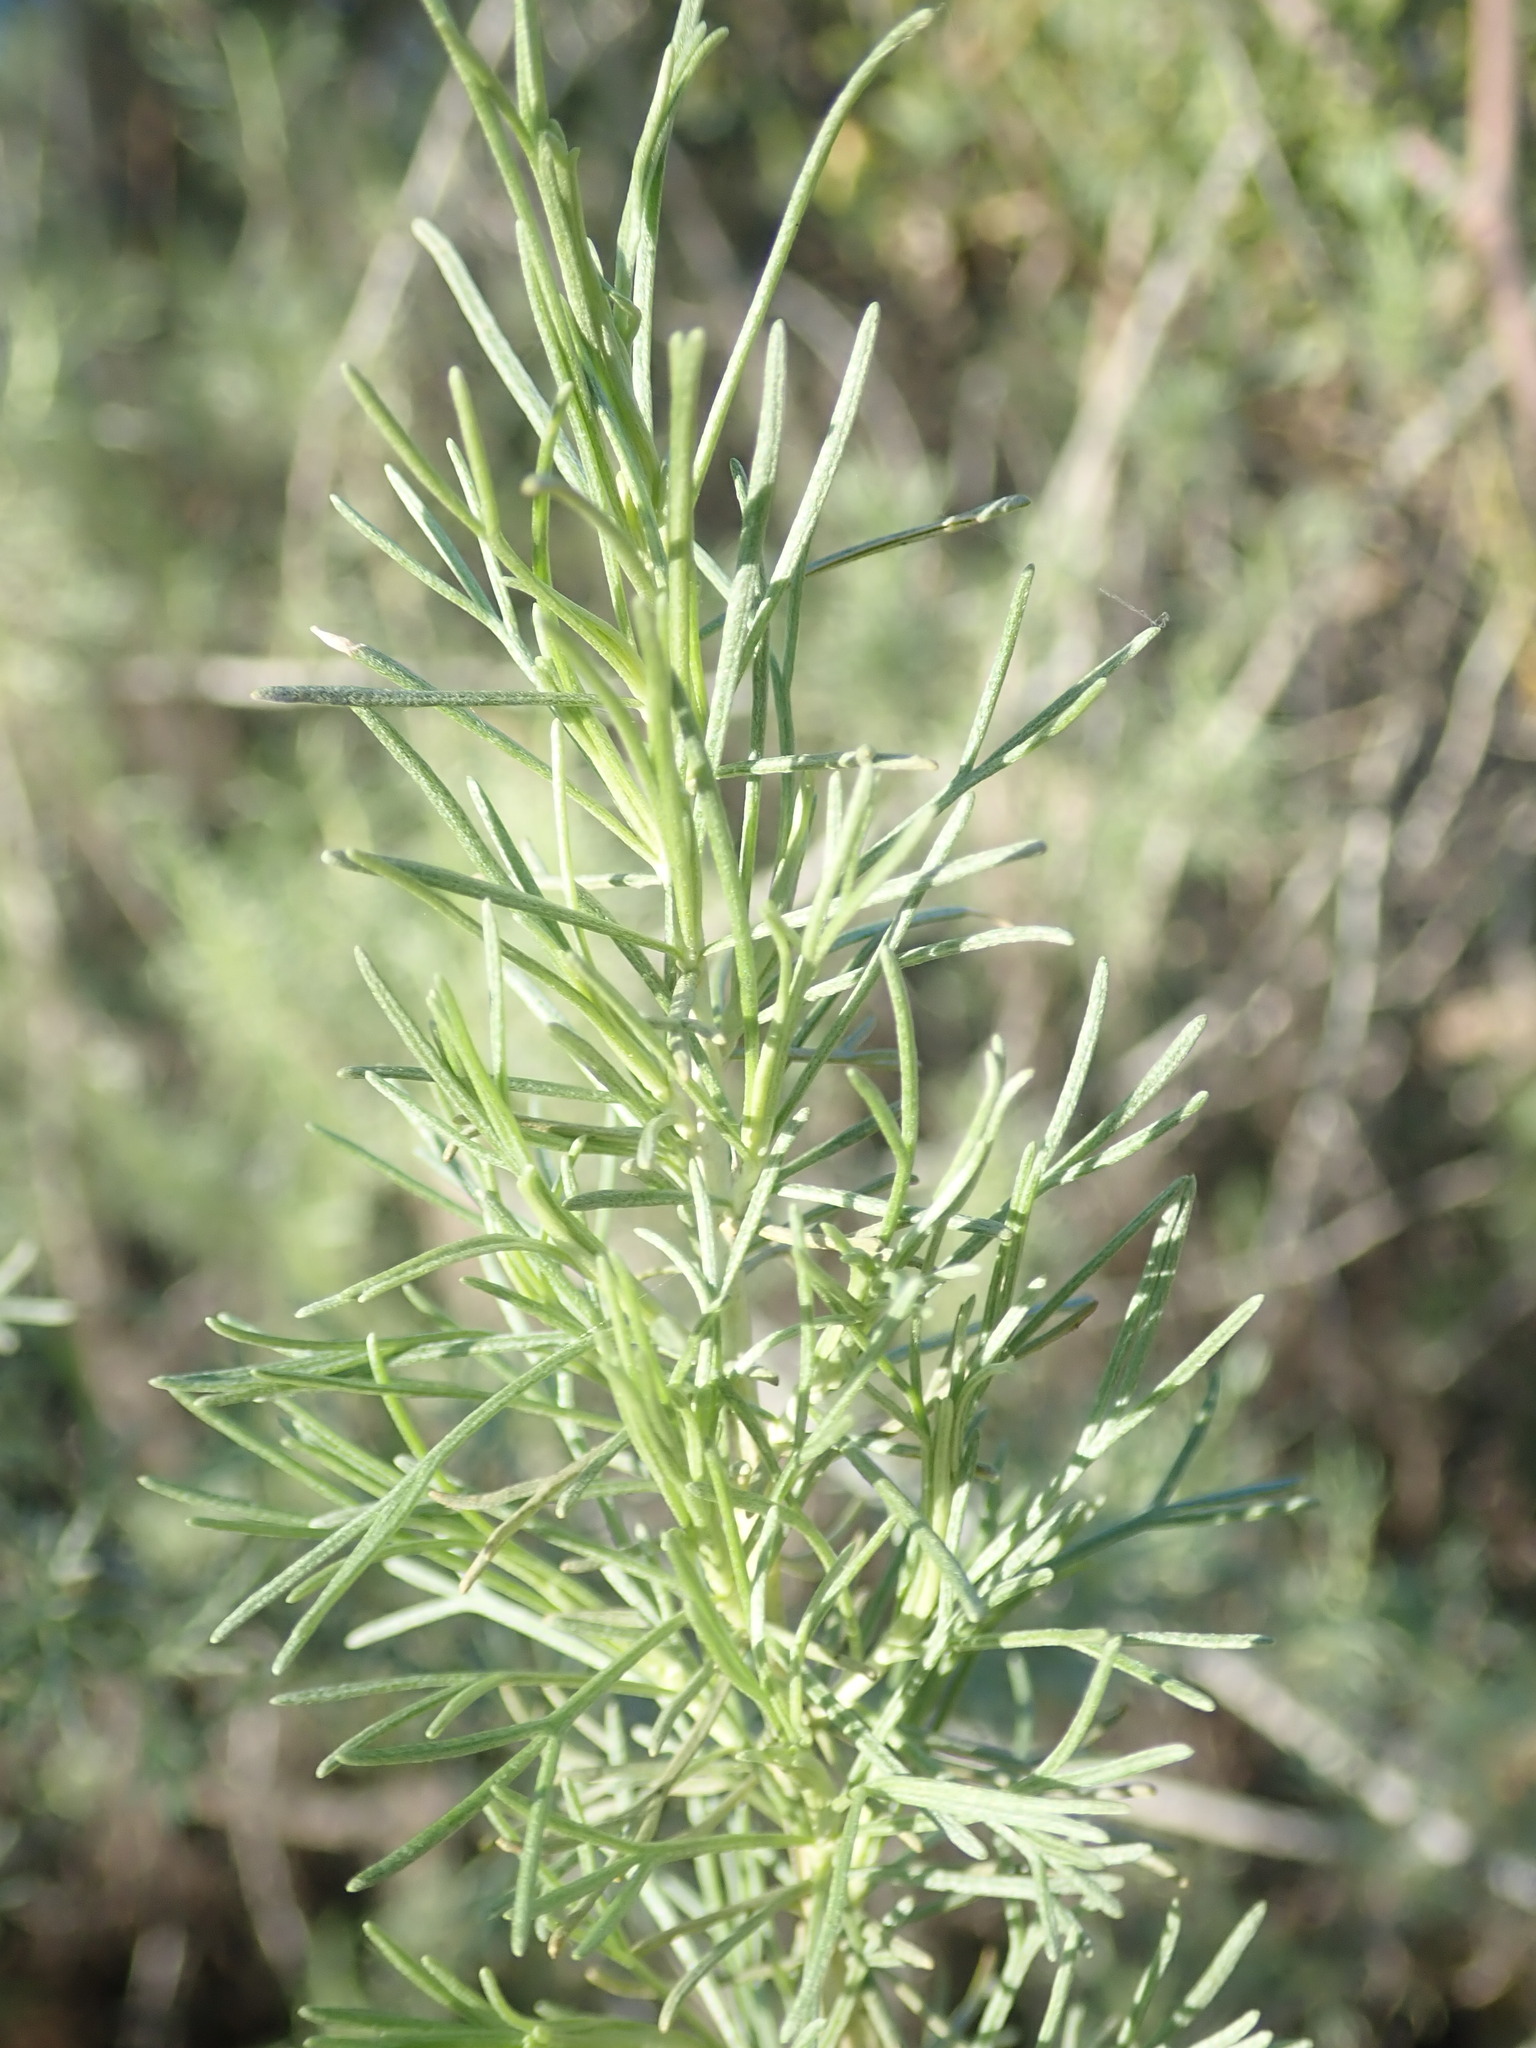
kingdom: Plantae
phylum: Tracheophyta
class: Magnoliopsida
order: Asterales
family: Asteraceae
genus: Artemisia
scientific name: Artemisia californica
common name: California sagebrush
